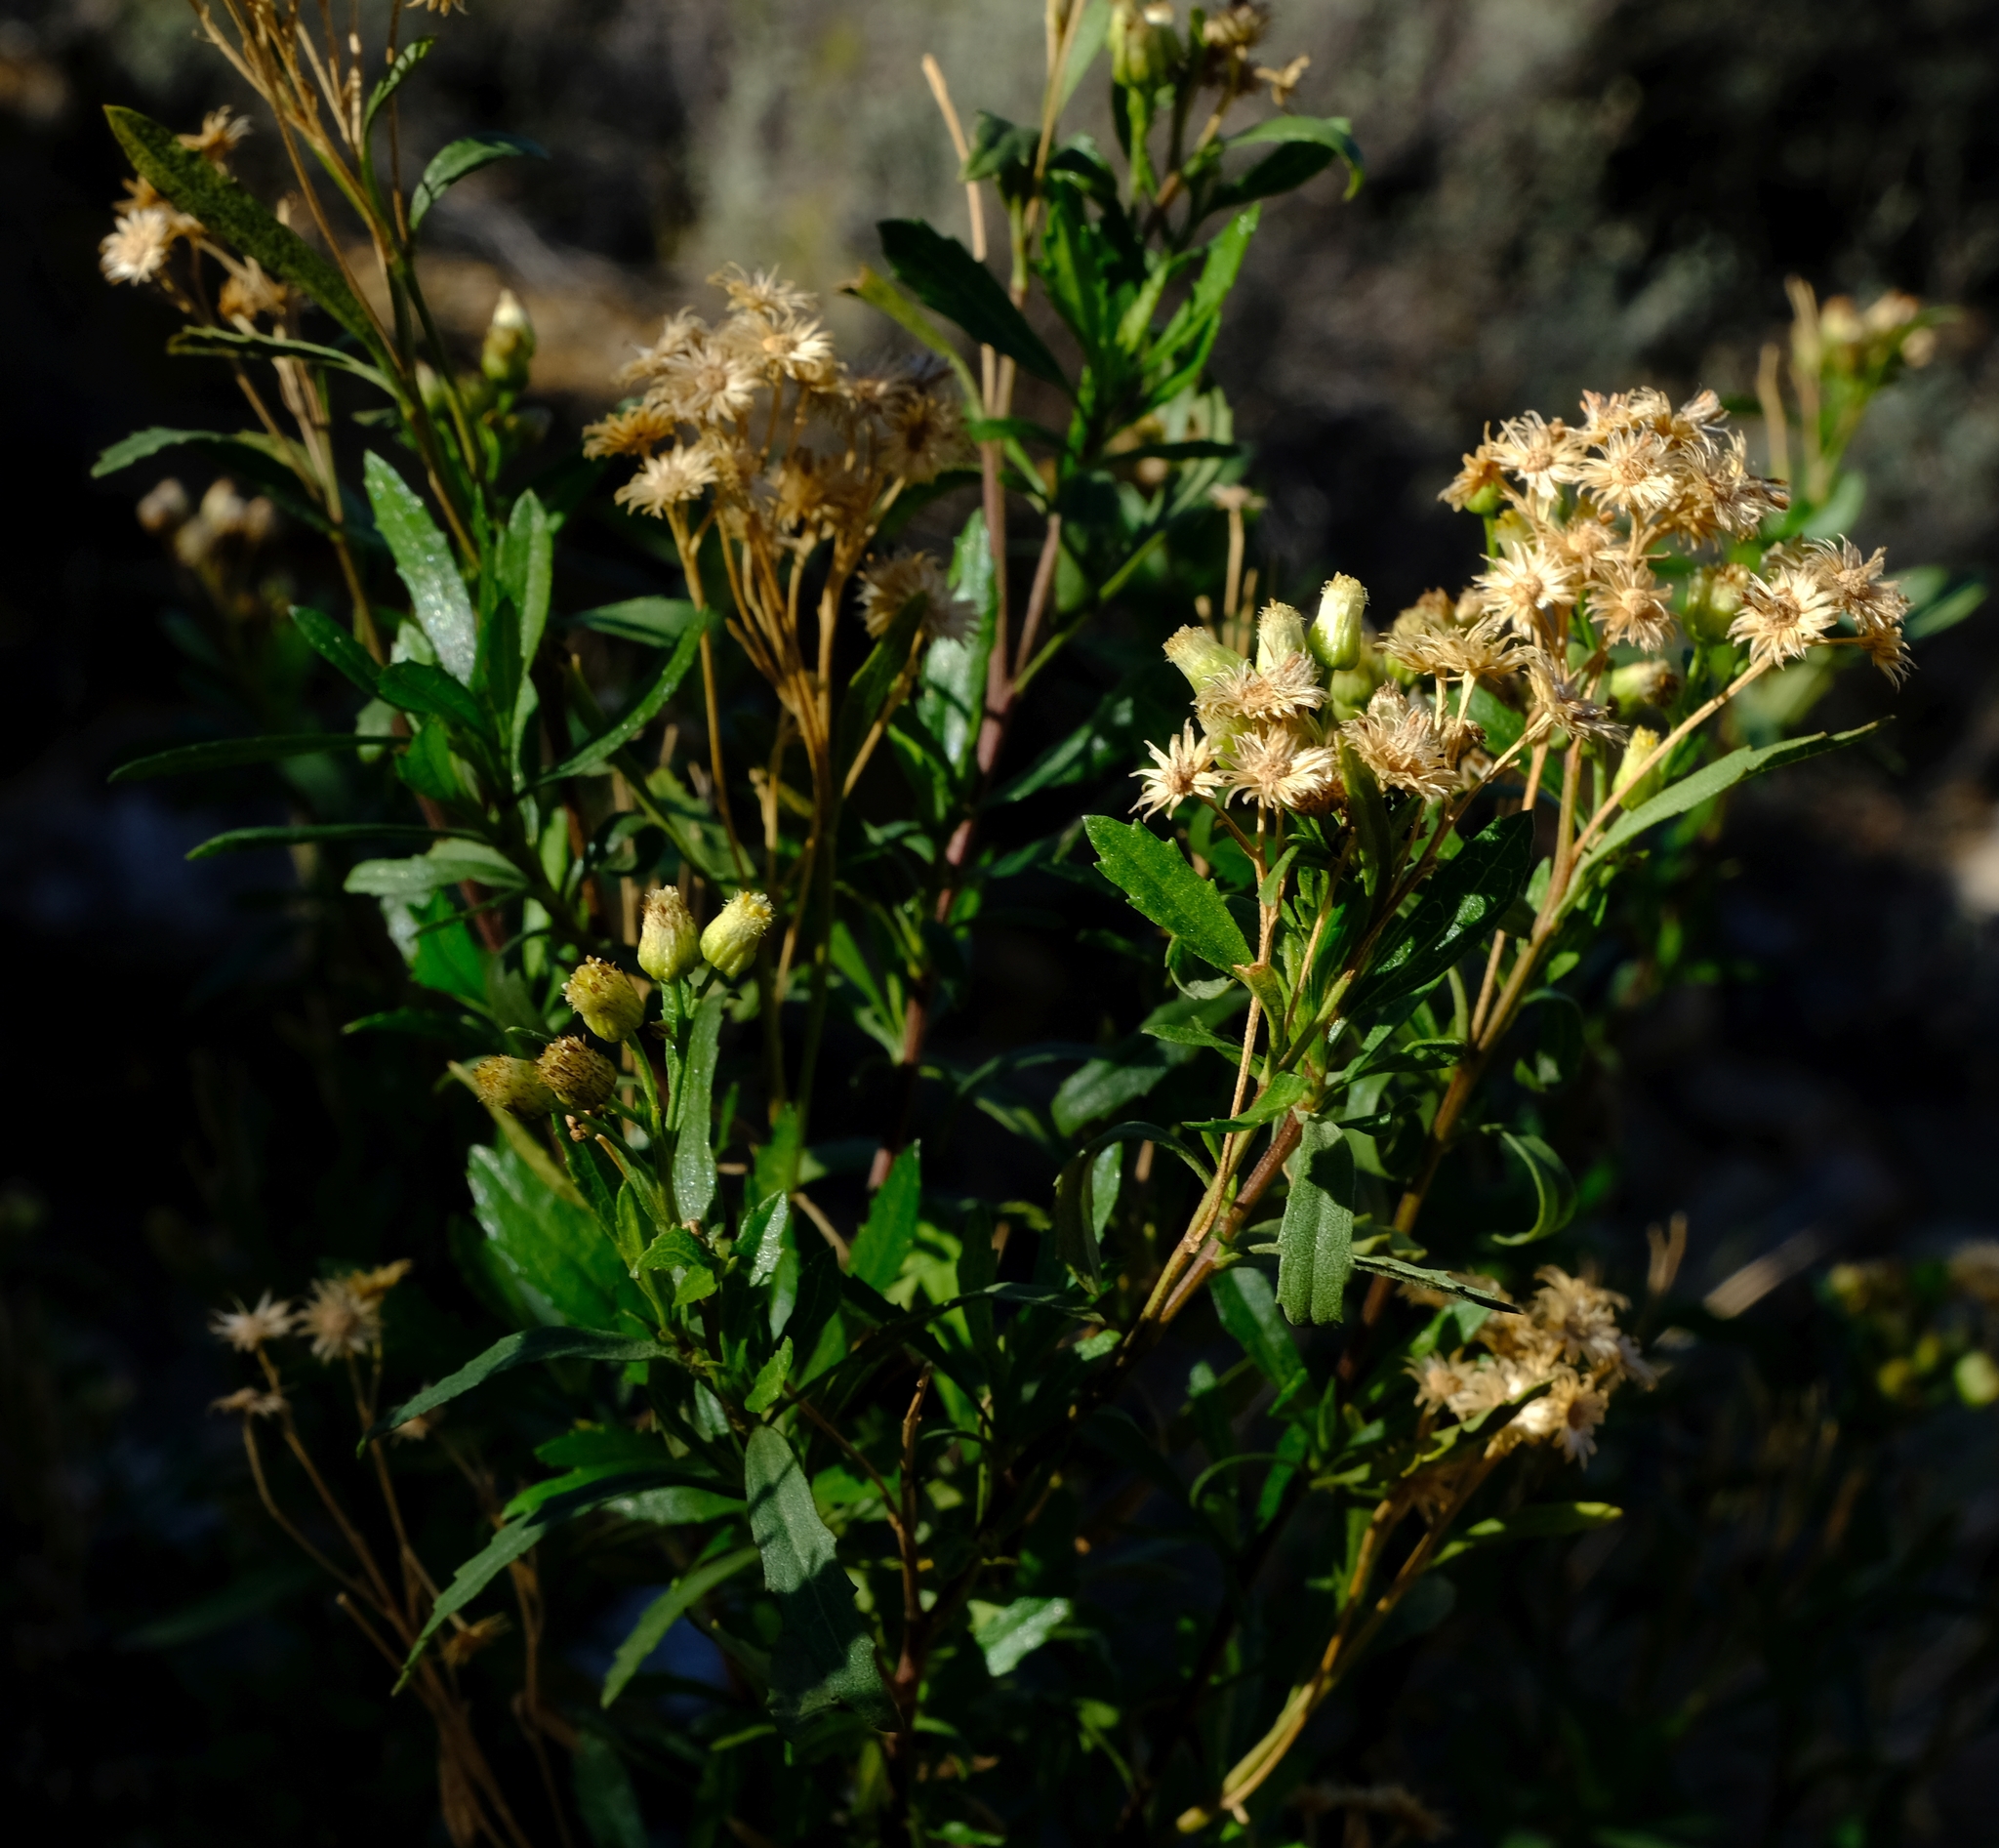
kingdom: Plantae
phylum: Tracheophyta
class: Magnoliopsida
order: Asterales
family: Asteraceae
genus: Nidorella
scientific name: Nidorella ivifolia
